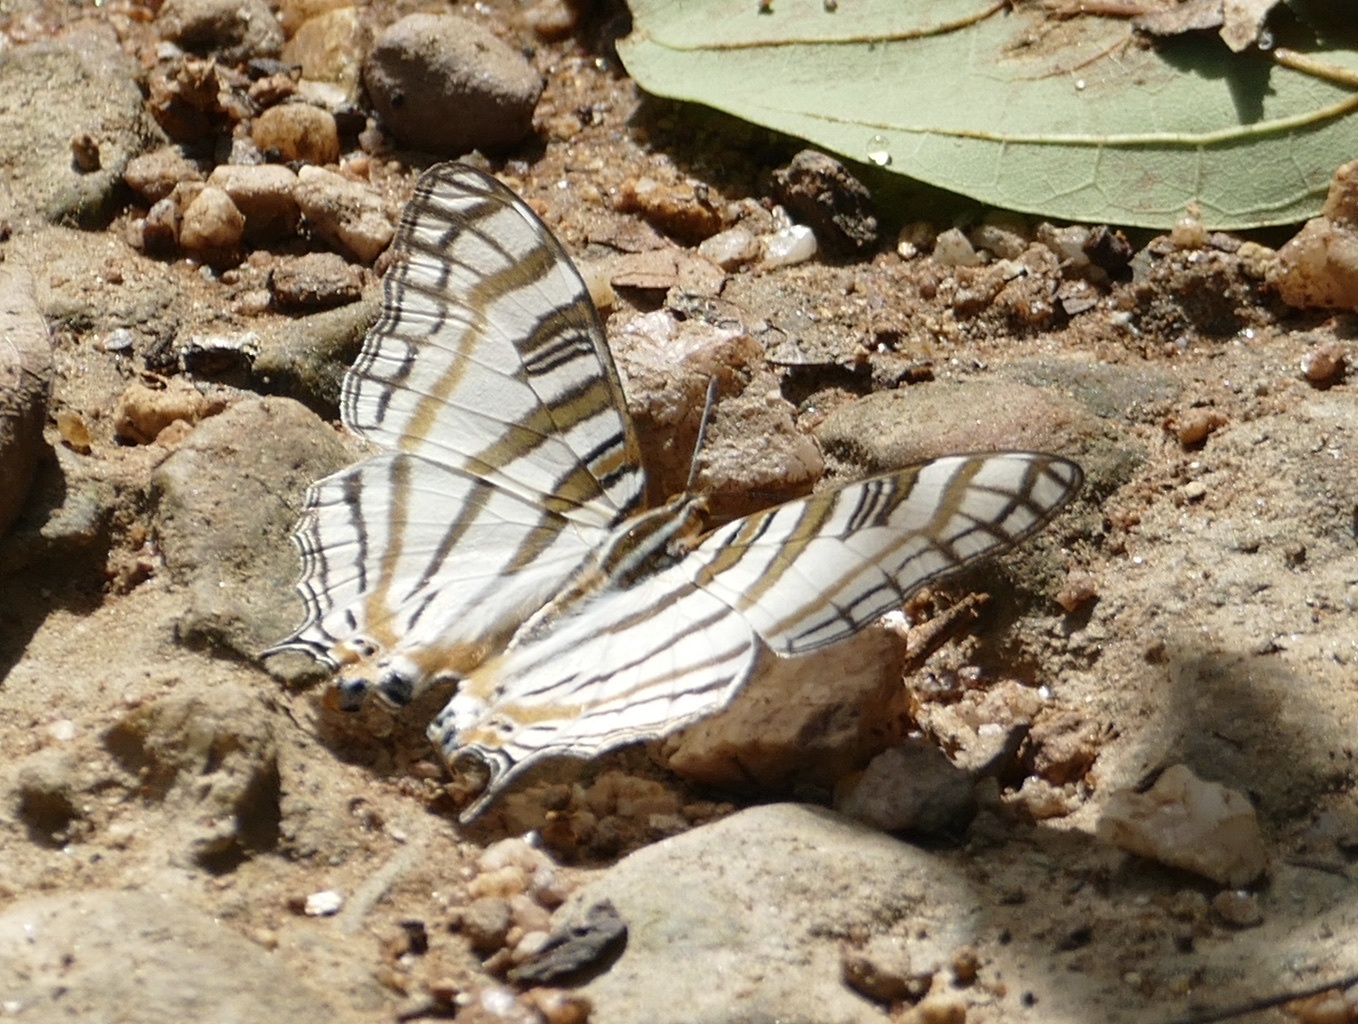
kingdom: Animalia
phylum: Arthropoda
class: Insecta
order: Lepidoptera
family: Nymphalidae
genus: Marpesia
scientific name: Marpesia camillus
